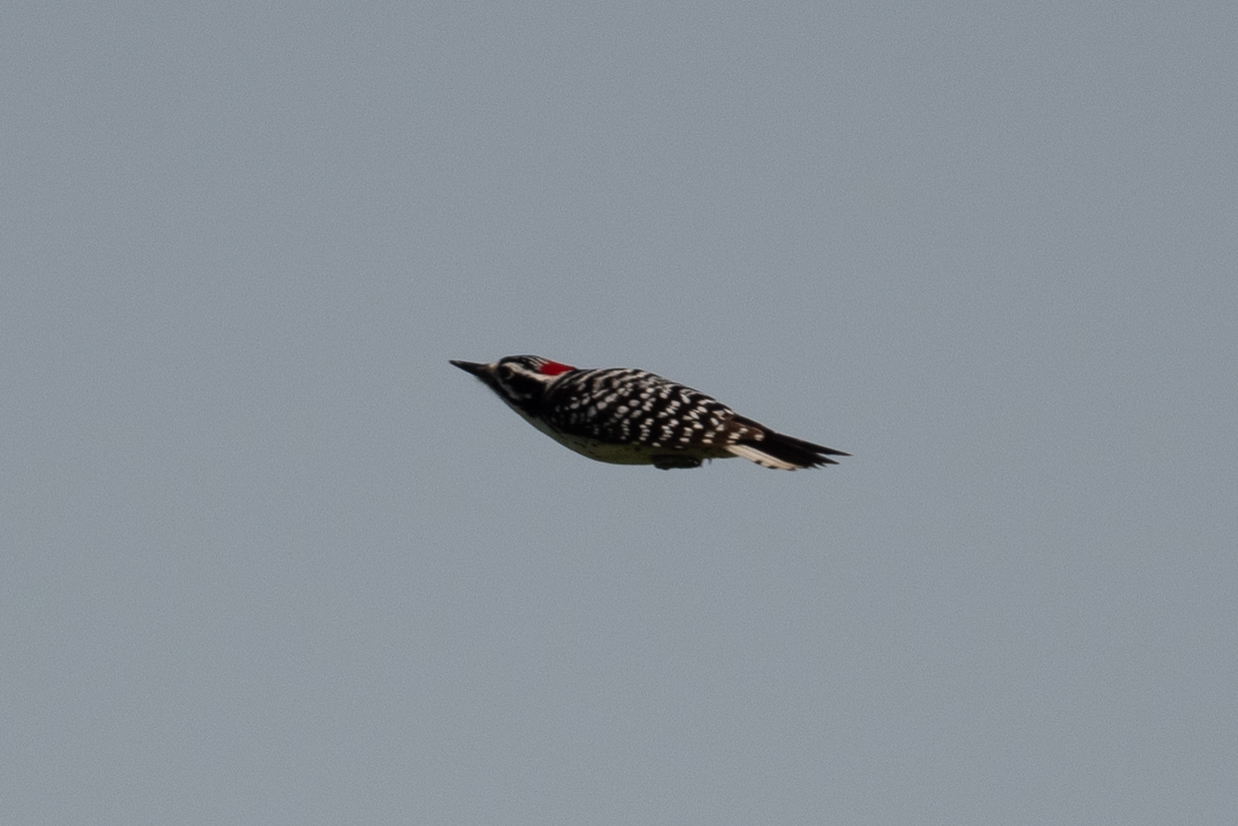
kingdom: Animalia
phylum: Chordata
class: Aves
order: Piciformes
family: Picidae
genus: Dryobates
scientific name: Dryobates nuttallii
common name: Nuttall's woodpecker
